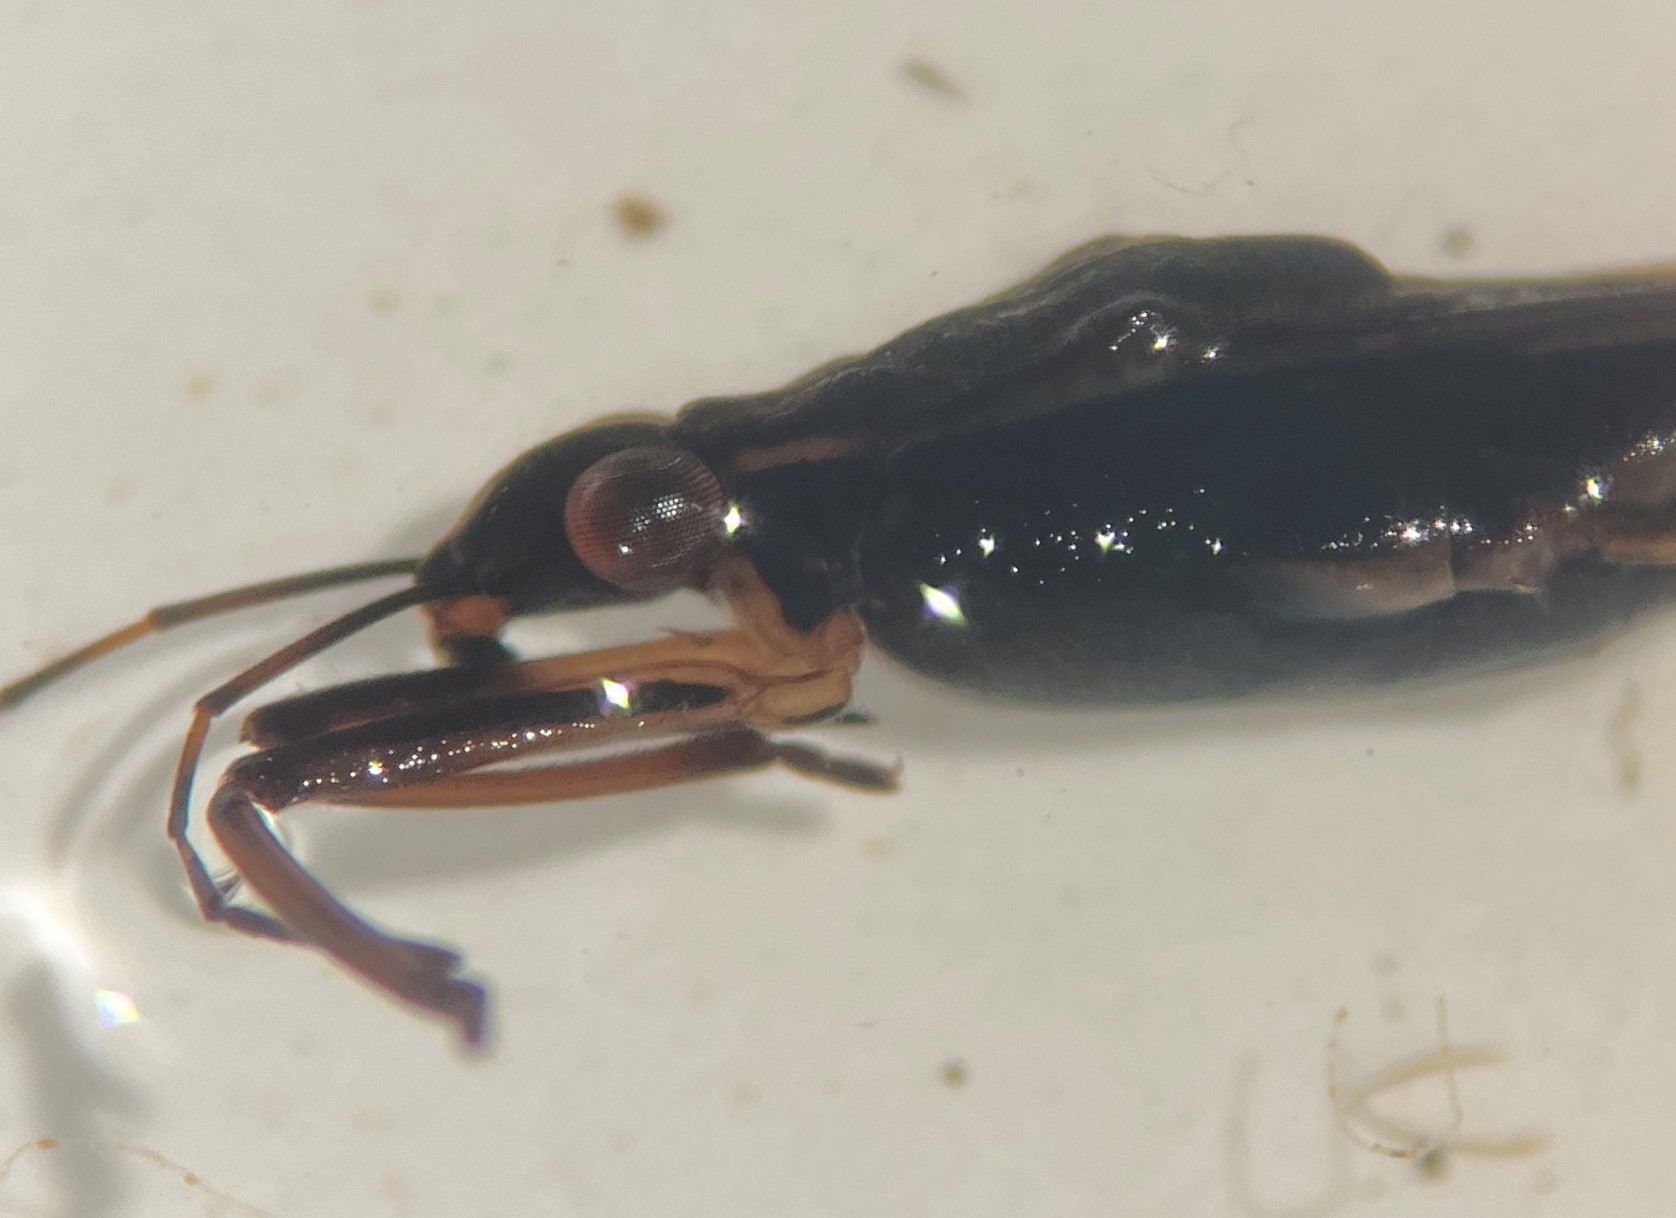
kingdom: Animalia
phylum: Arthropoda
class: Insecta
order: Hemiptera
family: Gerridae
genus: Gerris
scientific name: Gerris argenticollis
